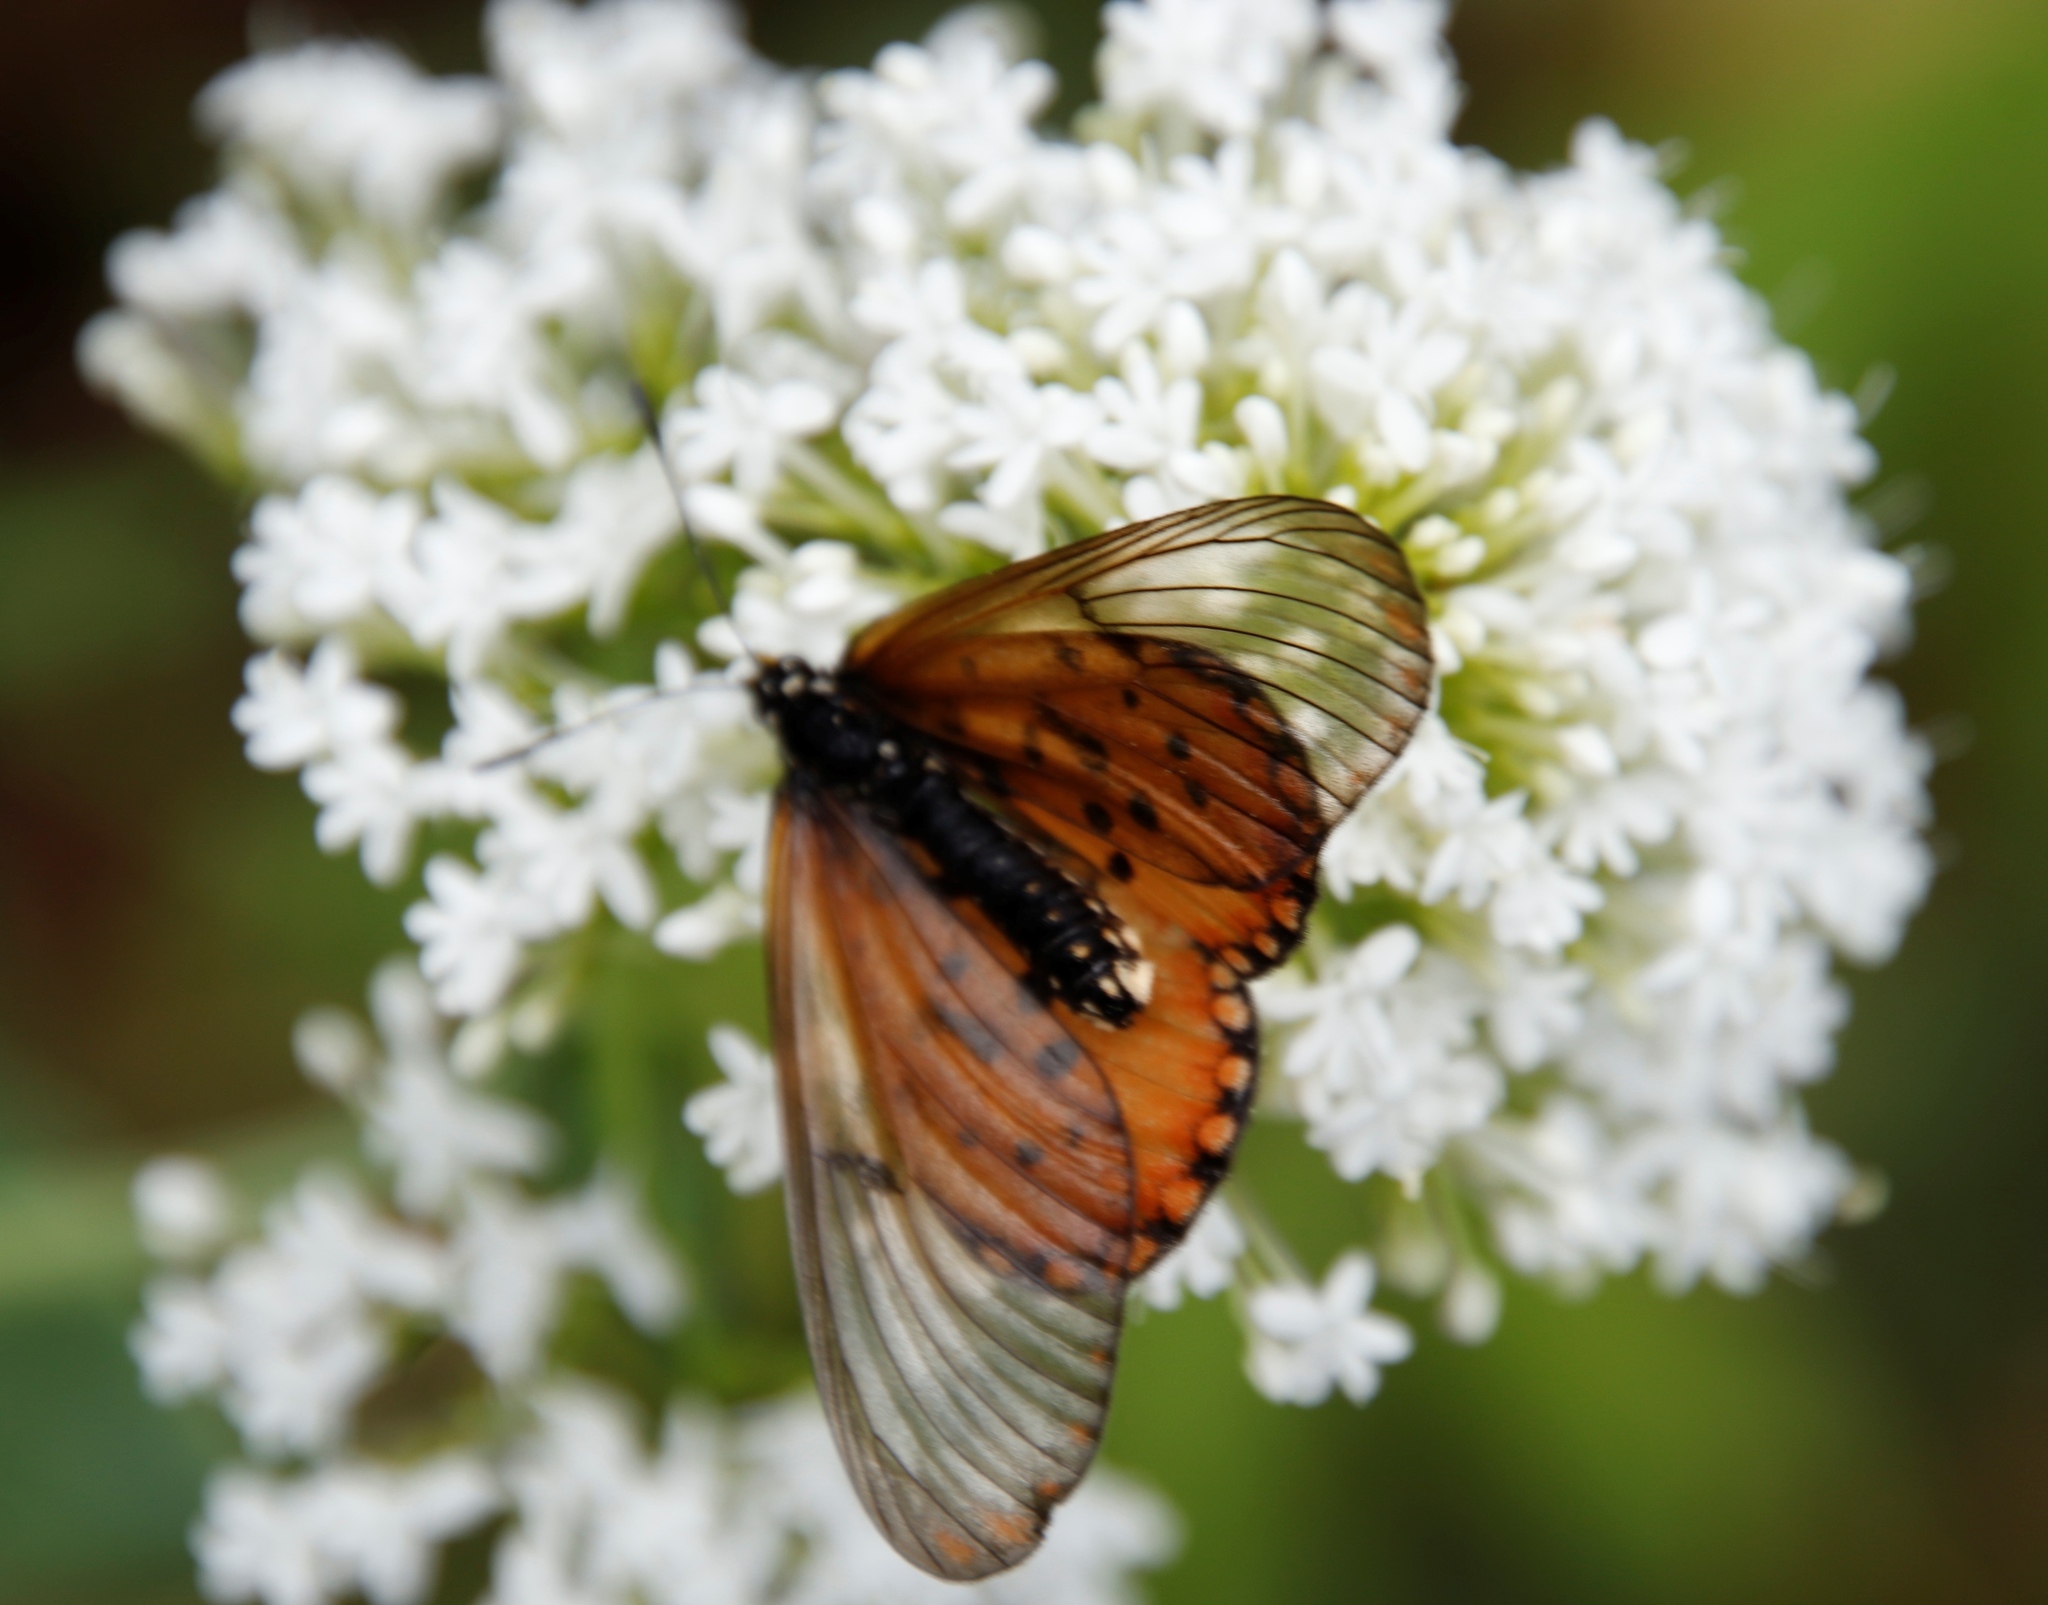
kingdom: Animalia
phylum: Arthropoda
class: Insecta
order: Lepidoptera
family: Nymphalidae
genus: Acraea
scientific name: Acraea horta
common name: Garden acraea
